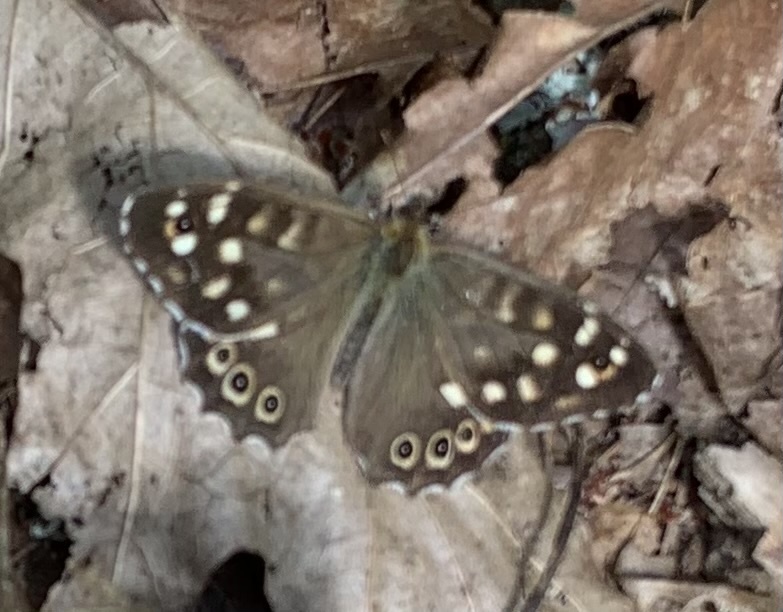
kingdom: Animalia
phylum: Arthropoda
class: Insecta
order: Lepidoptera
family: Nymphalidae
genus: Pararge
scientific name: Pararge aegeria
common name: Speckled wood
